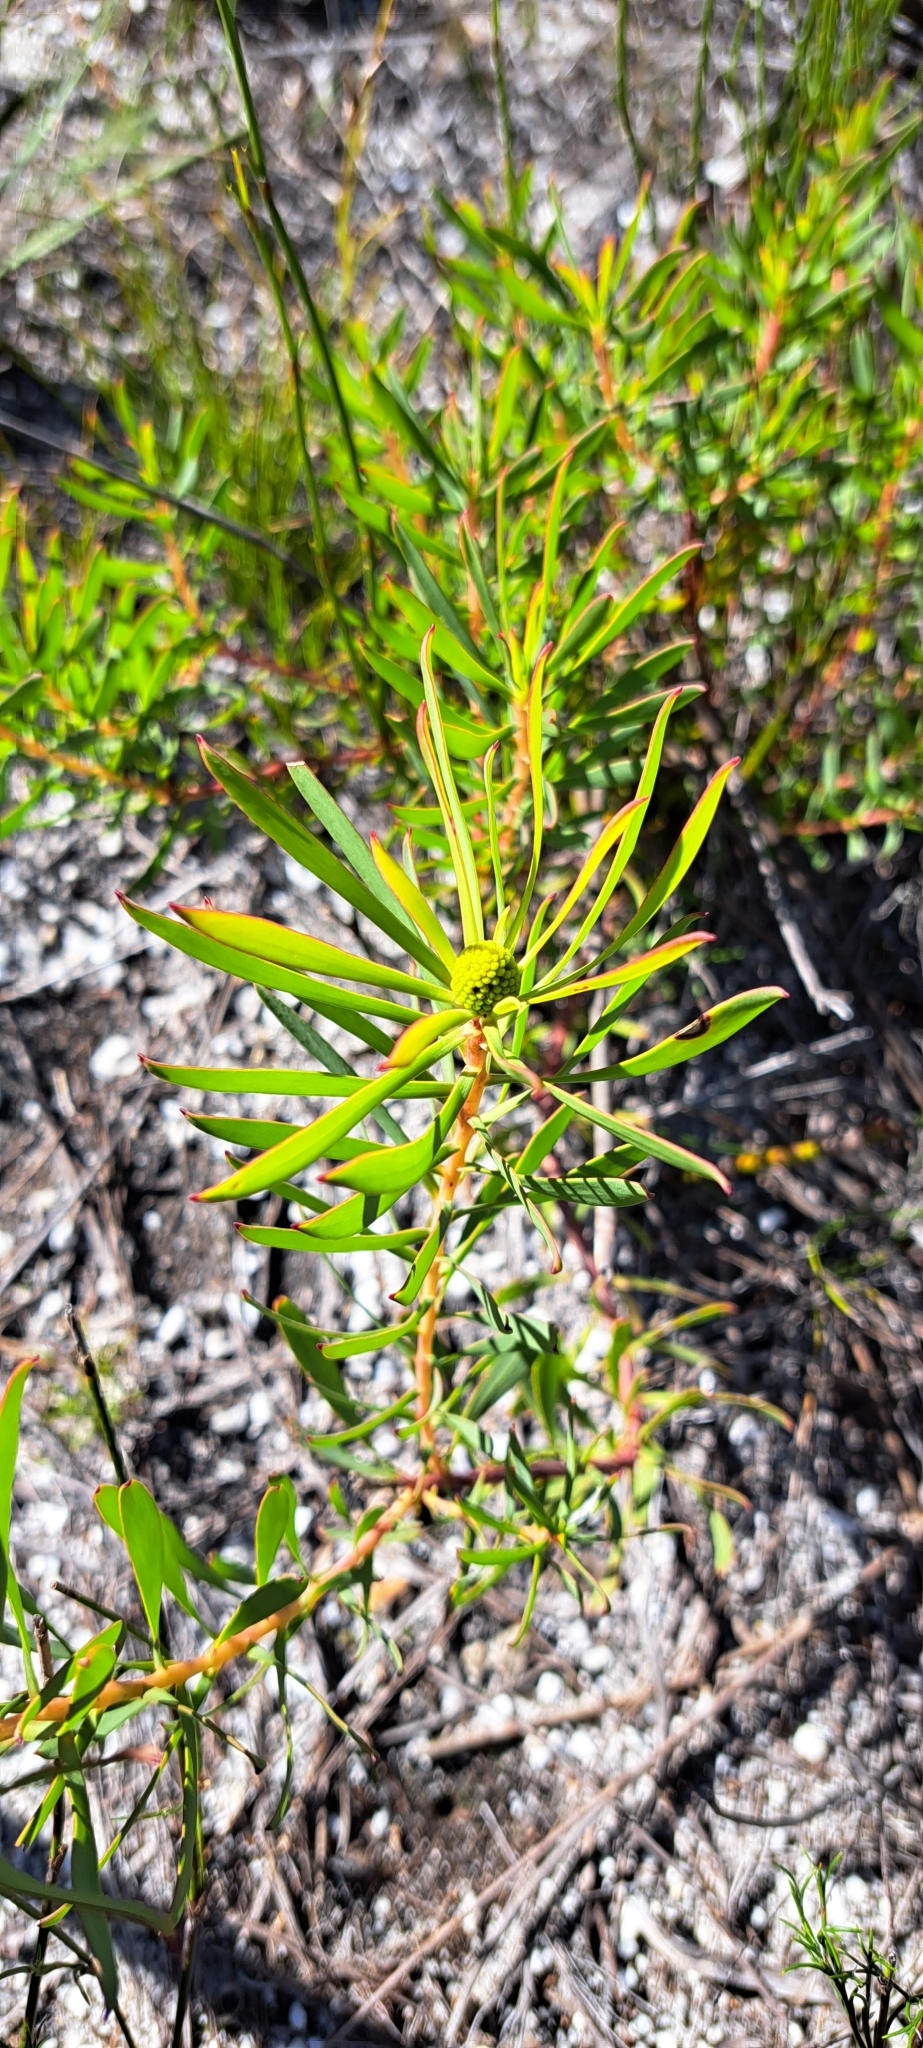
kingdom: Plantae
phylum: Tracheophyta
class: Magnoliopsida
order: Proteales
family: Proteaceae
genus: Leucadendron
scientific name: Leucadendron salignum
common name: Common sunshine conebush
